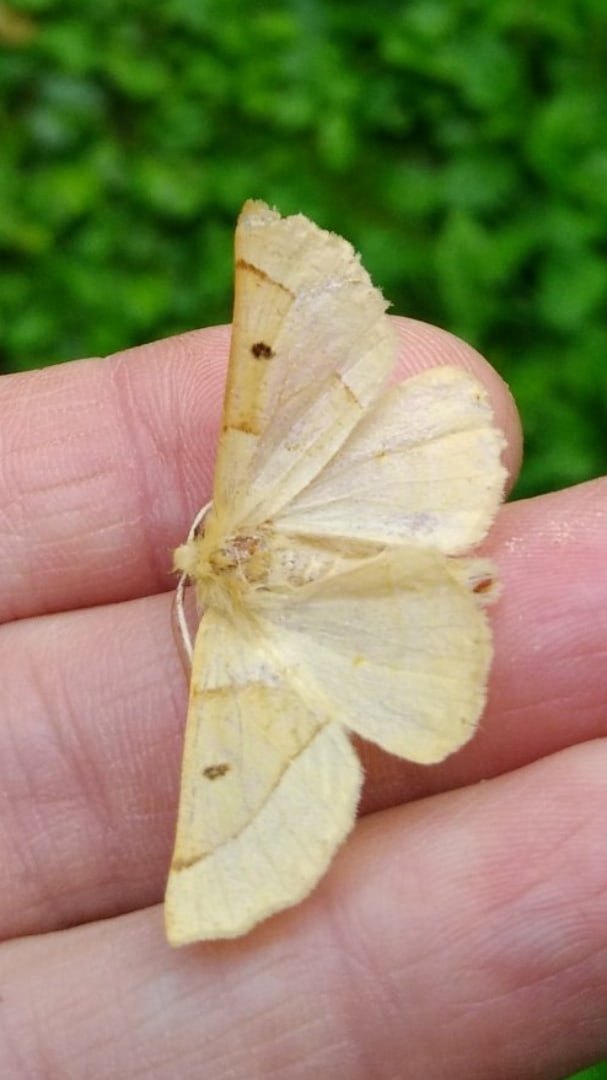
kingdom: Animalia
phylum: Arthropoda
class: Insecta
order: Lepidoptera
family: Geometridae
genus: Crocallis
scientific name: Crocallis elinguaria
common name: Scalloped oak
